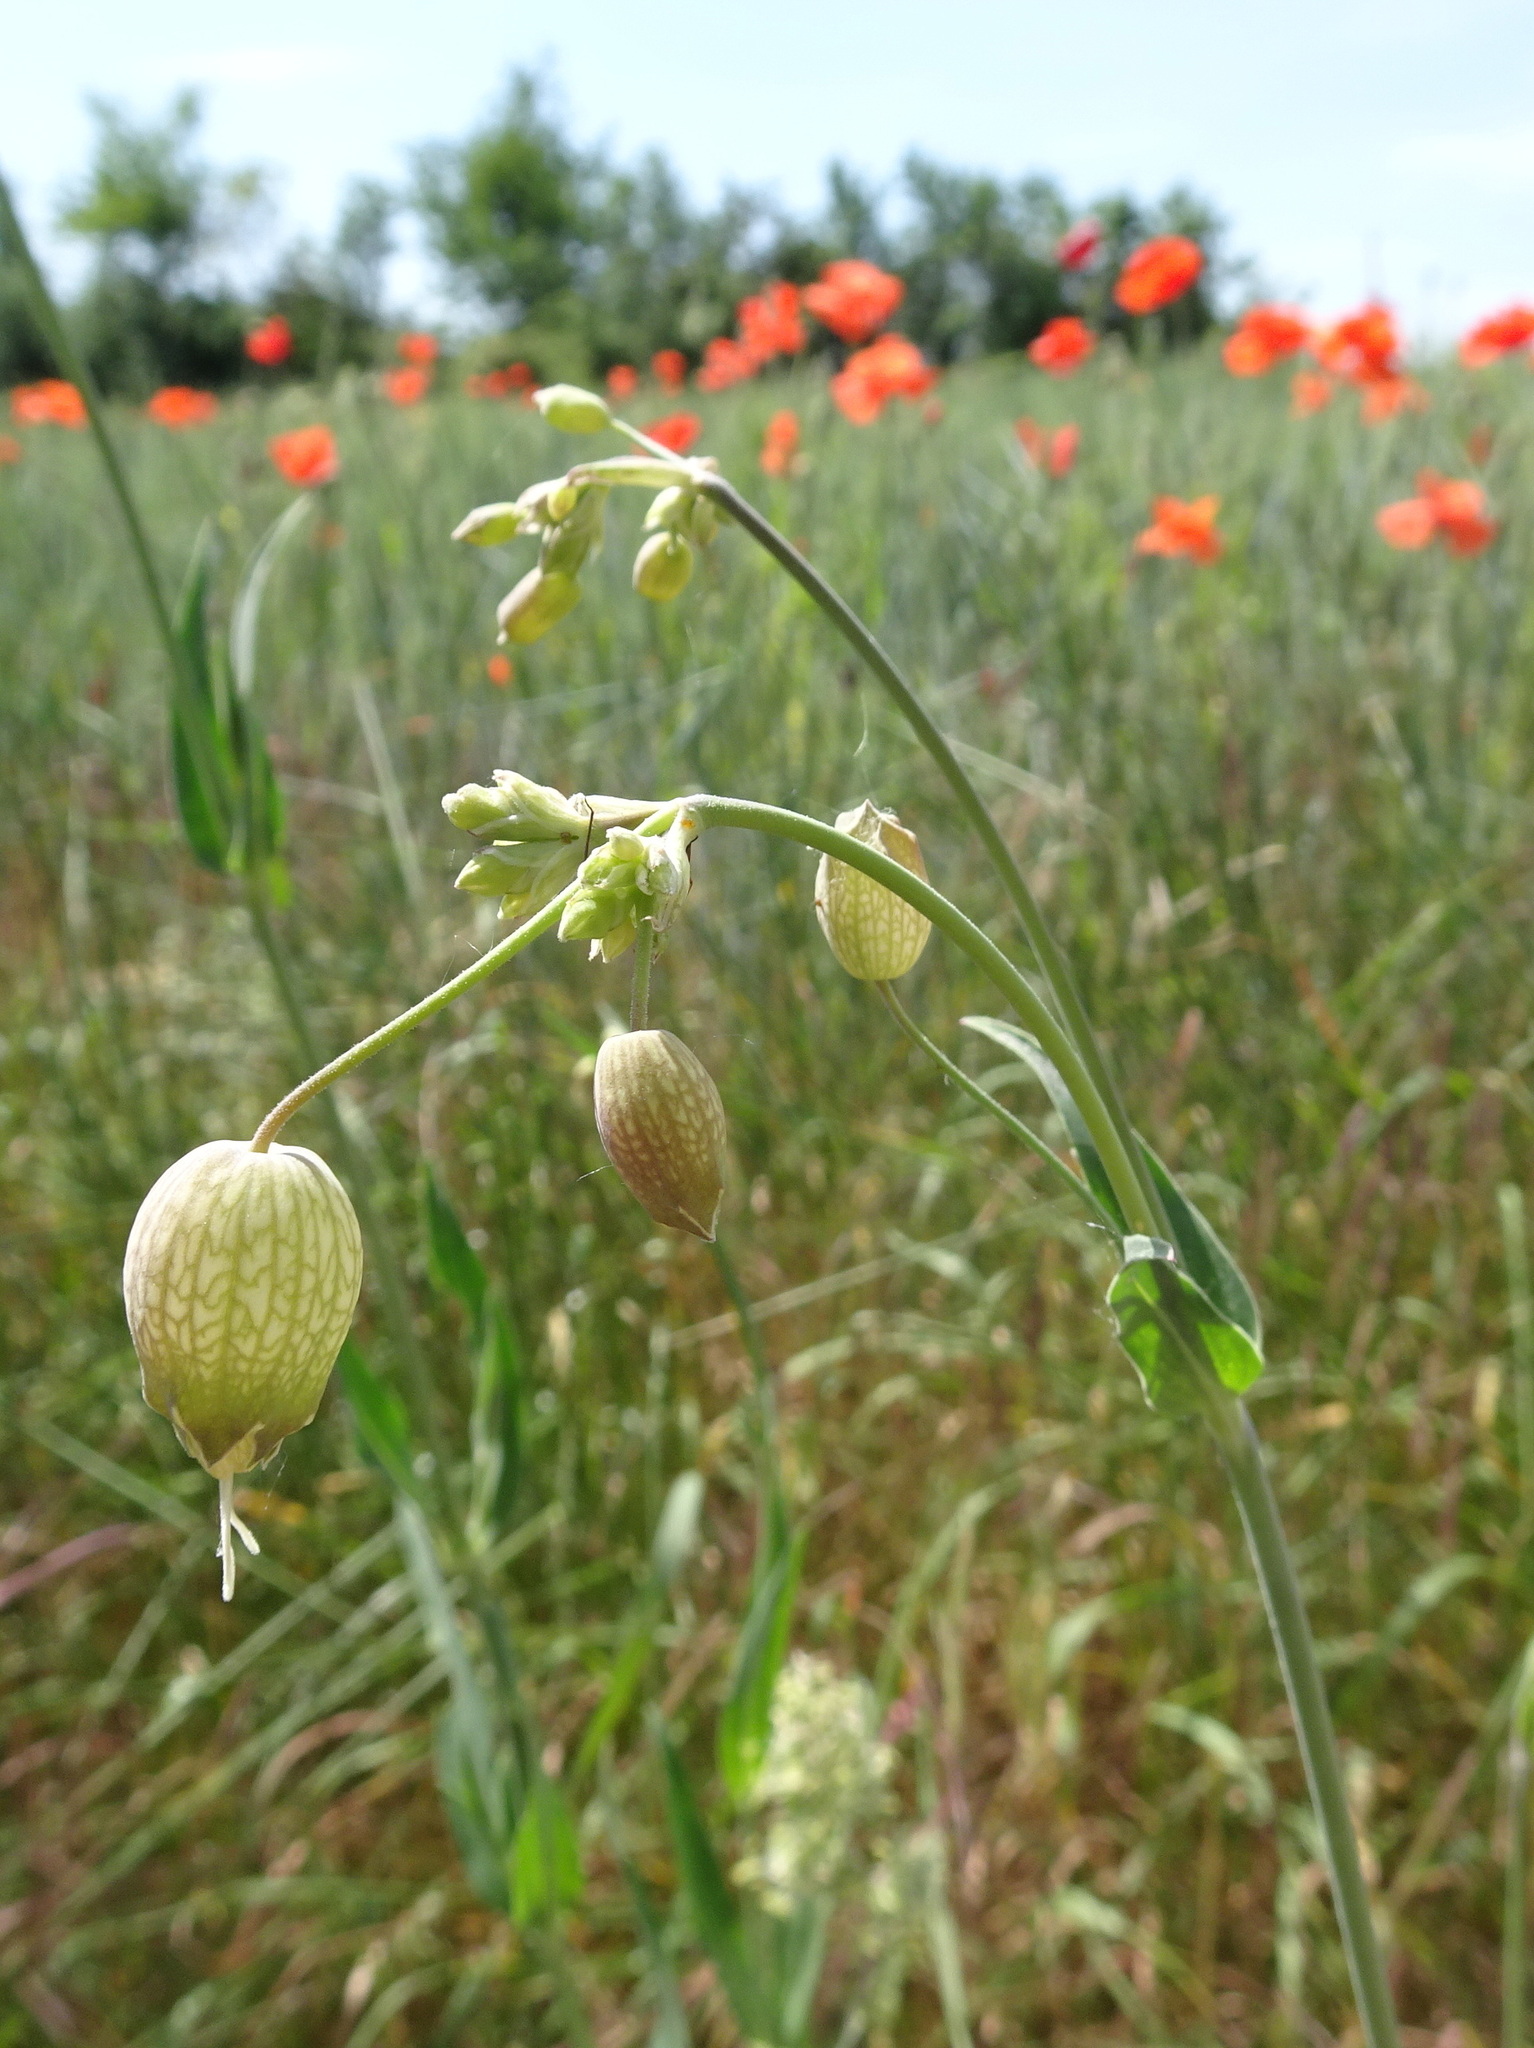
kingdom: Plantae
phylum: Tracheophyta
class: Magnoliopsida
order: Caryophyllales
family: Caryophyllaceae
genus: Silene
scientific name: Silene vulgaris
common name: Bladder campion
